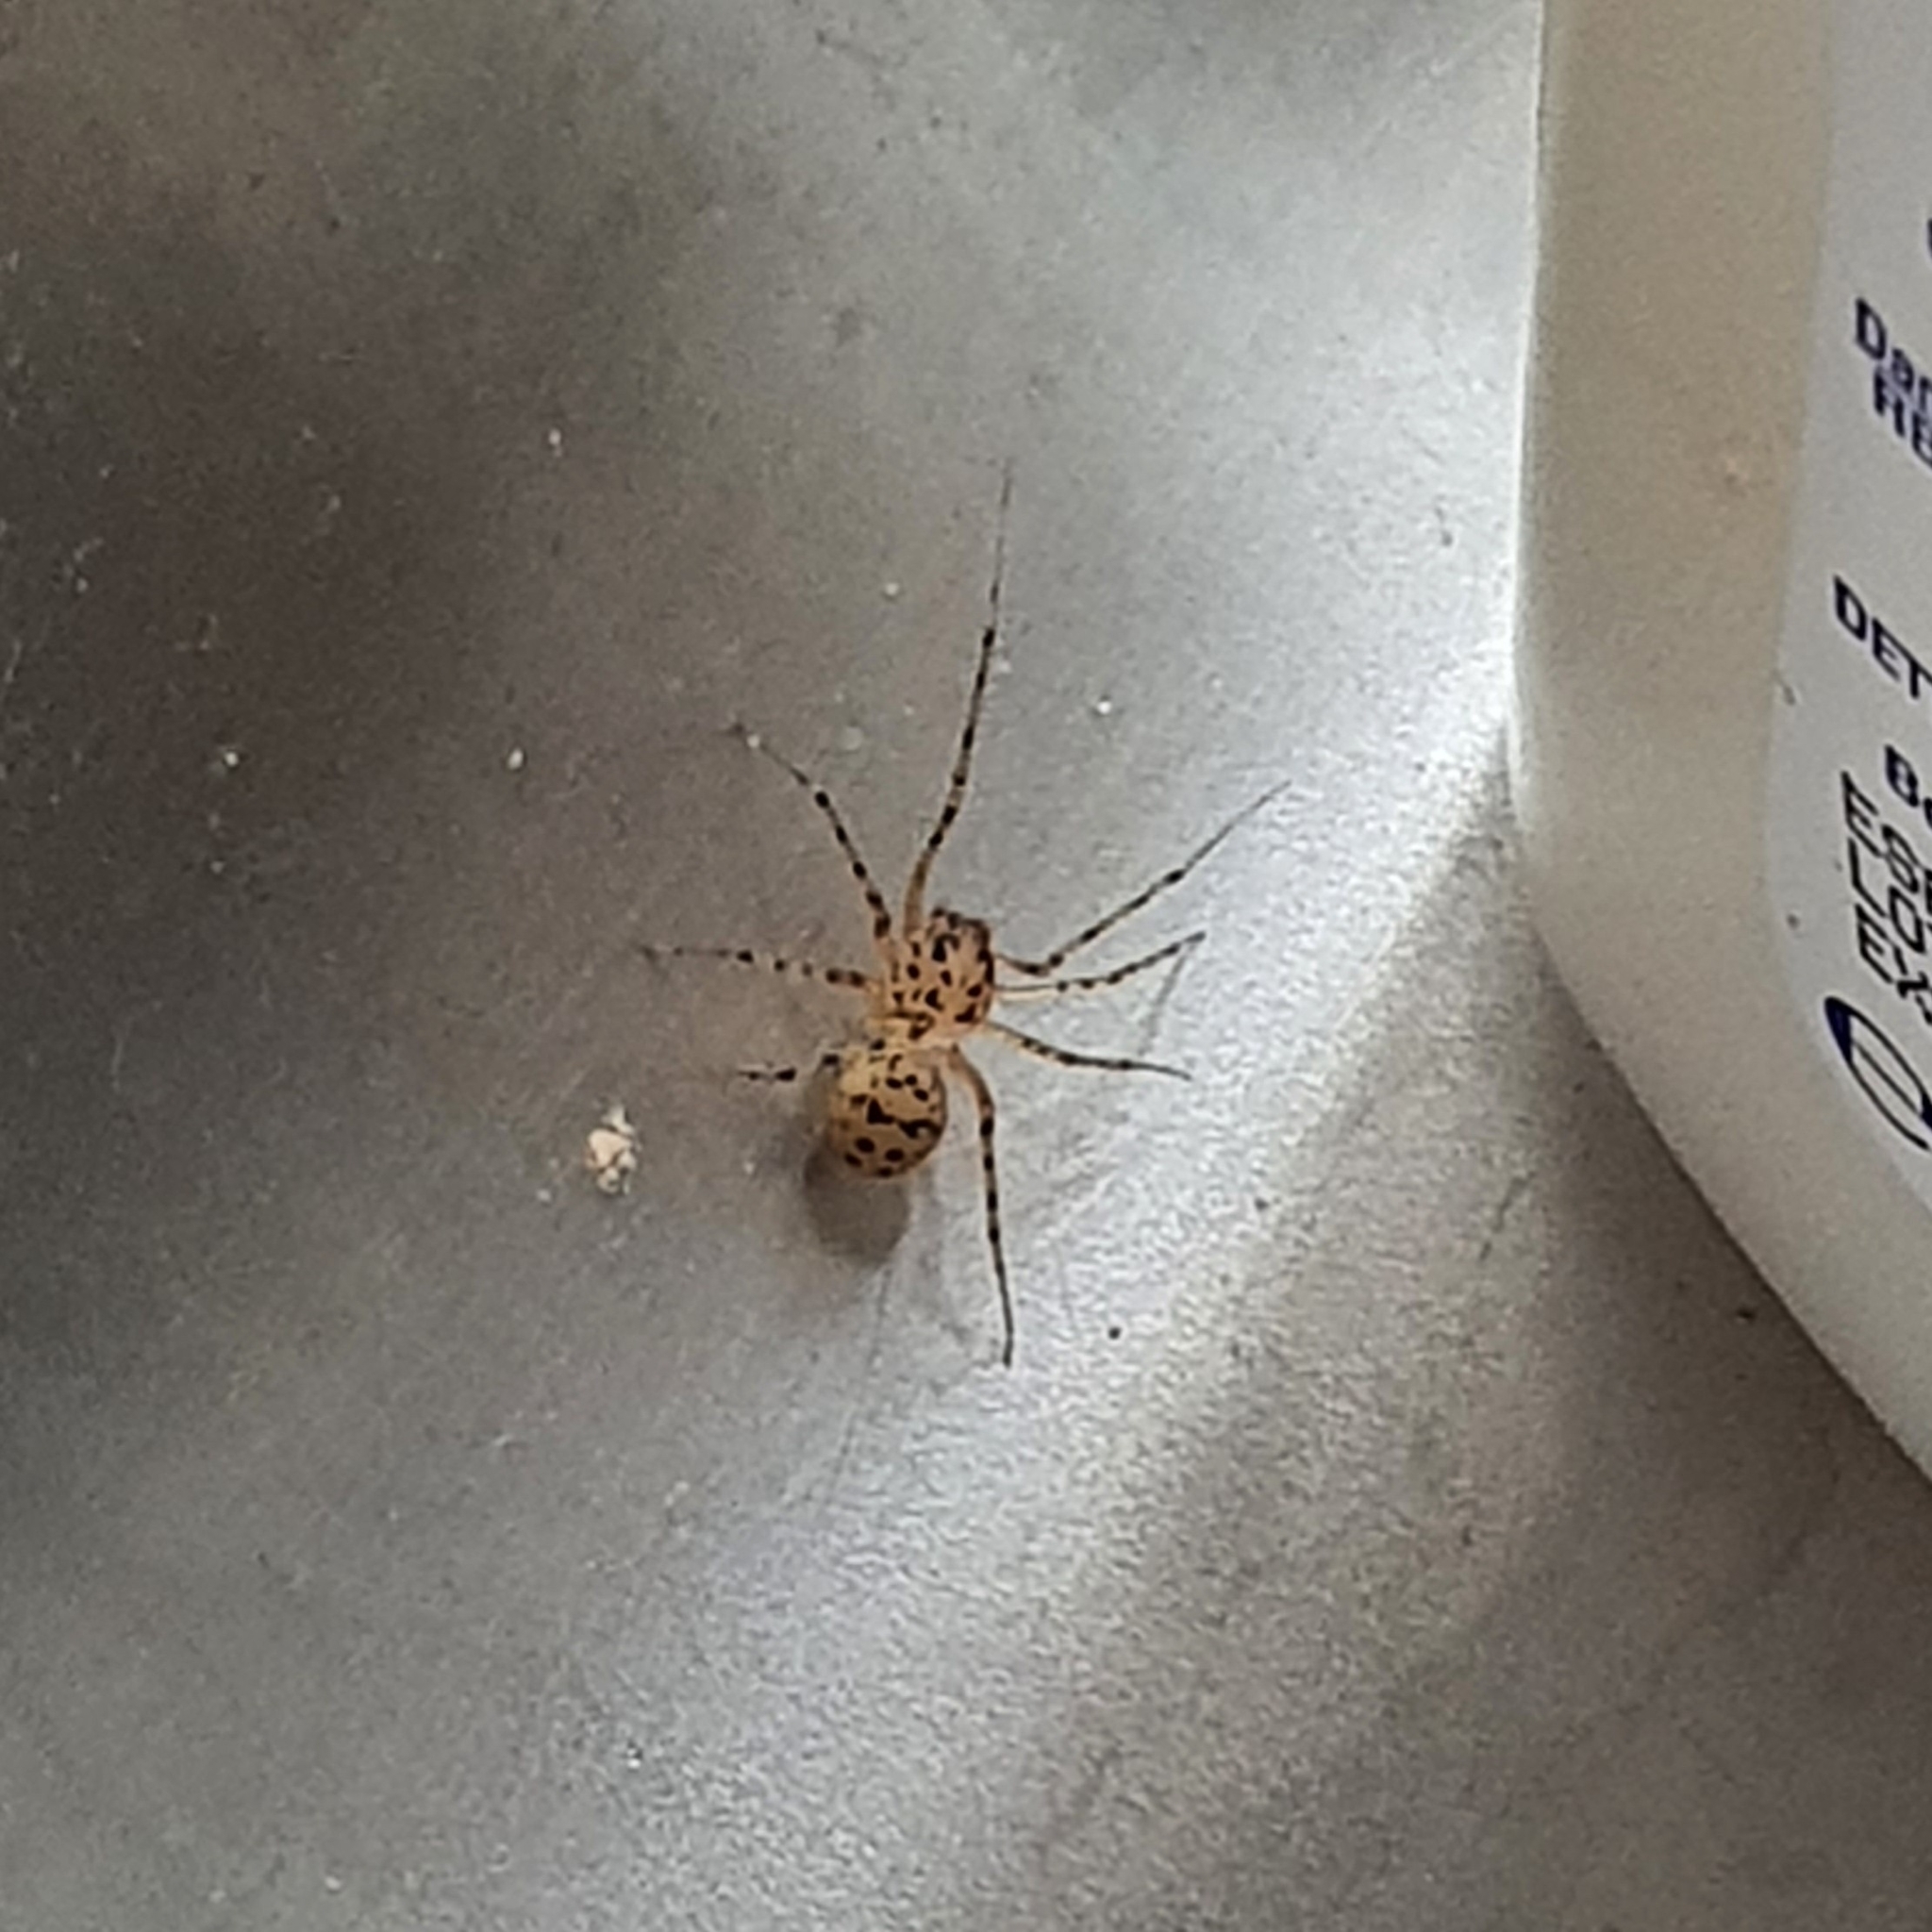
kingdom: Animalia
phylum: Arthropoda
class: Arachnida
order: Araneae
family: Scytodidae
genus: Scytodes
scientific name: Scytodes thoracica
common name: Spitting spider
